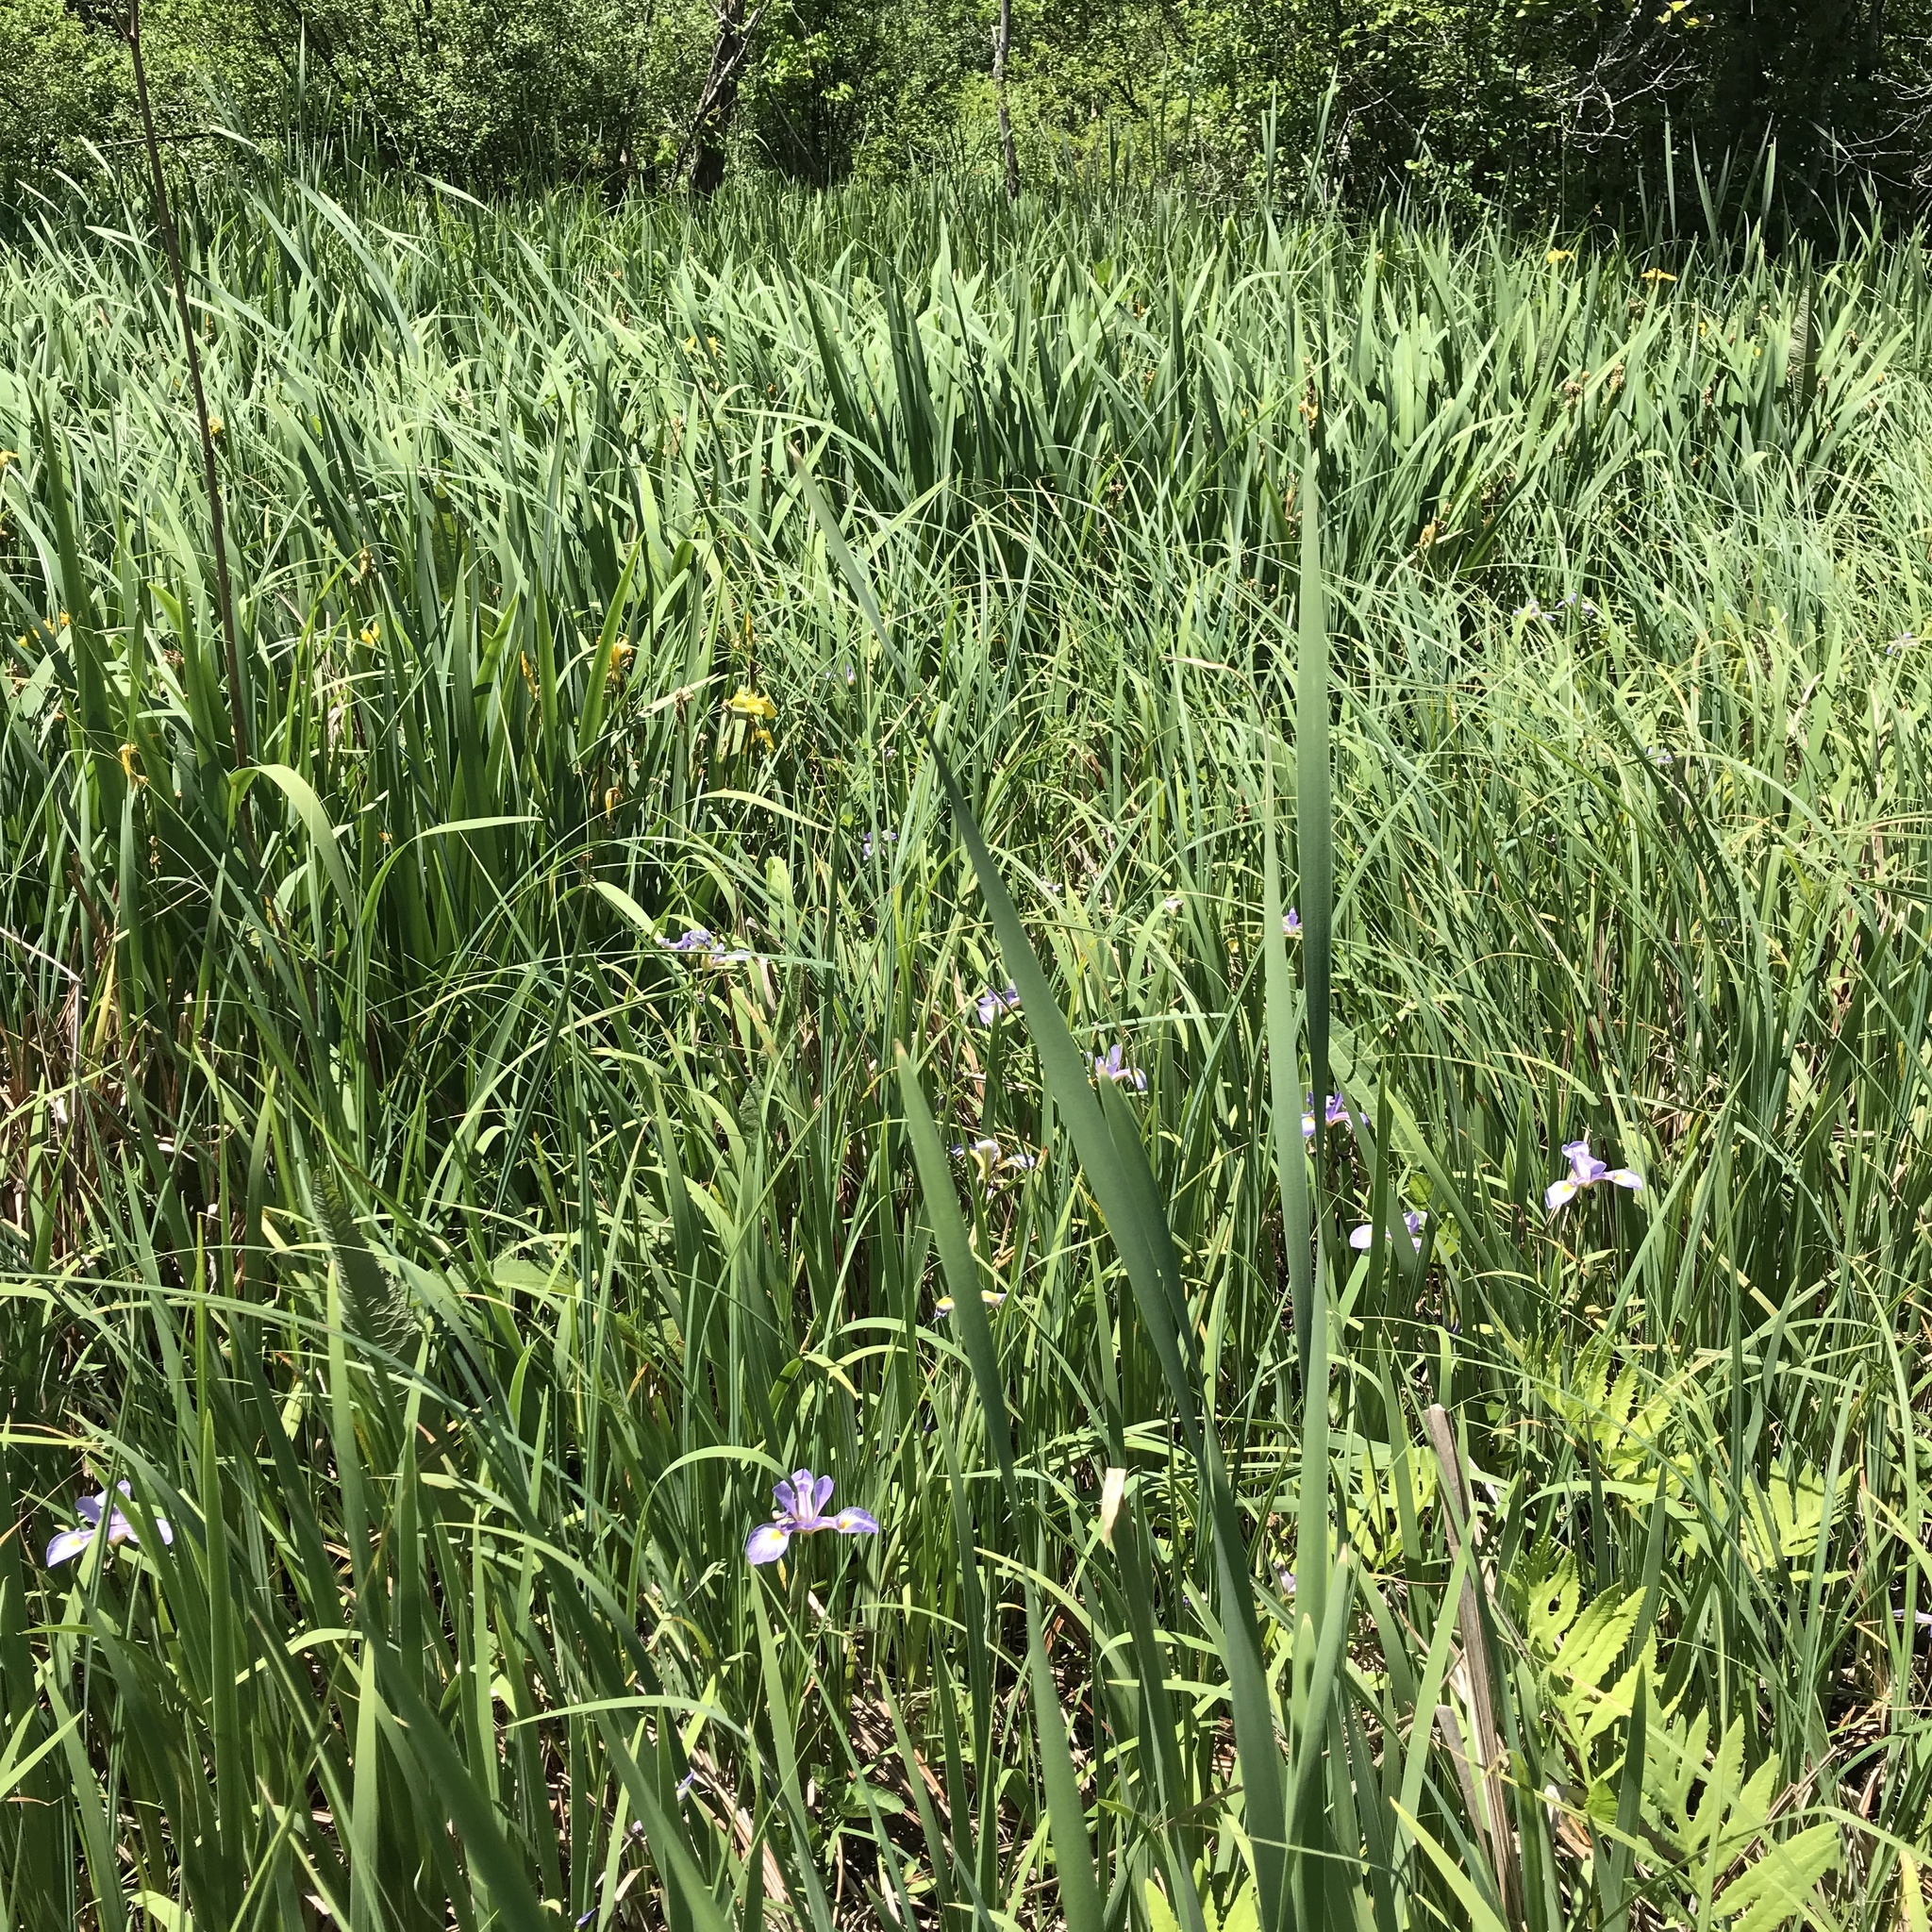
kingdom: Plantae
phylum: Tracheophyta
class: Liliopsida
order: Asparagales
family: Iridaceae
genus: Iris
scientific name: Iris virginica
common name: Southern blue flag
